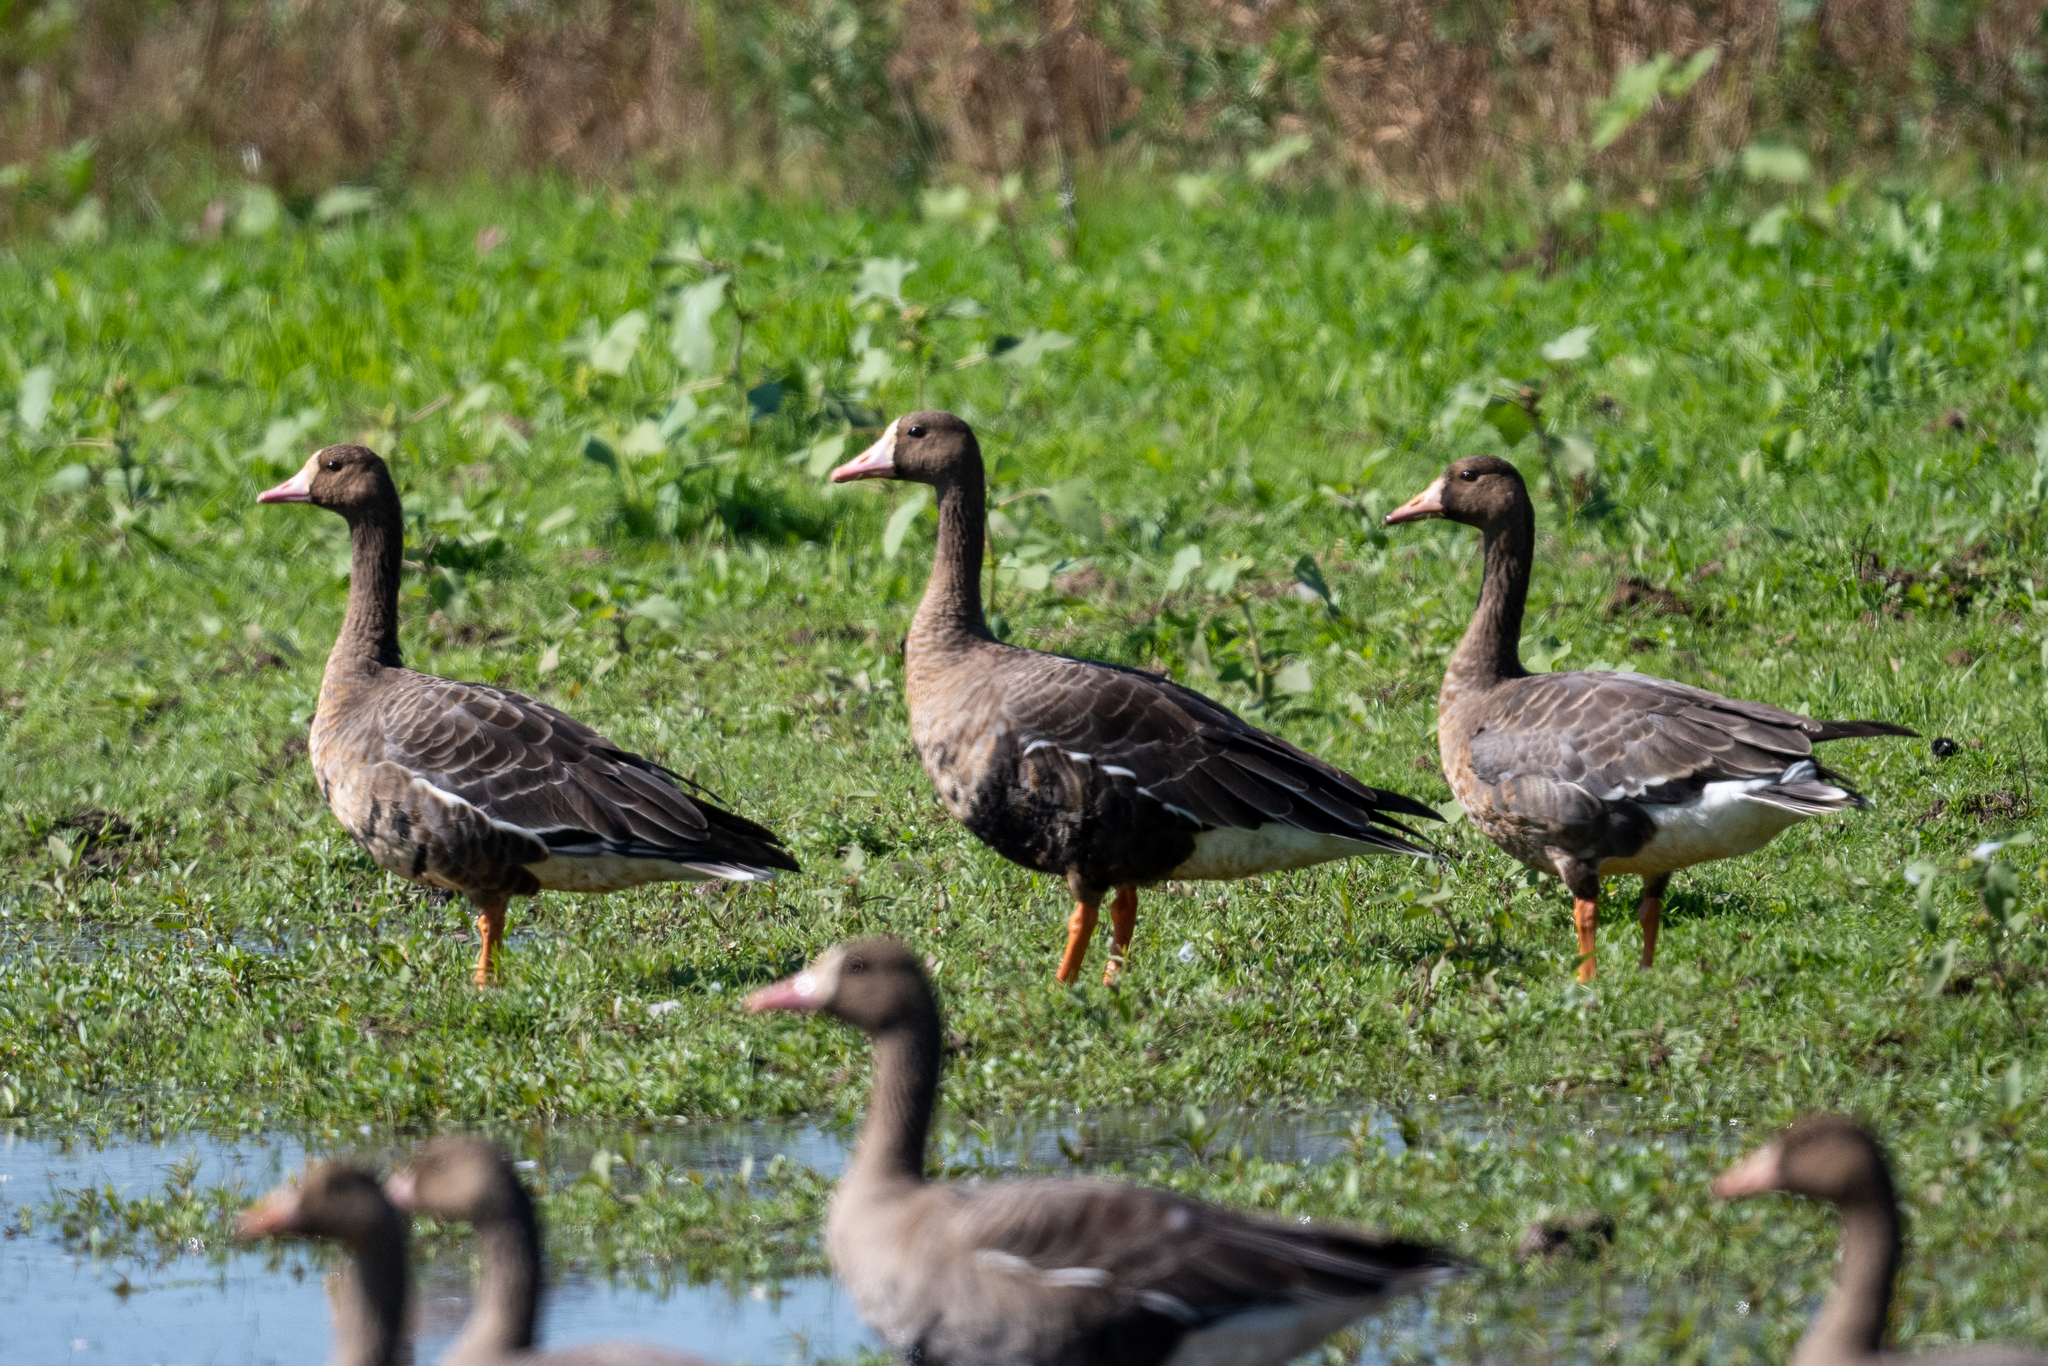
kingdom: Animalia
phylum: Chordata
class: Aves
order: Anseriformes
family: Anatidae
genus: Anser
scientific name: Anser albifrons
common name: Greater white-fronted goose
